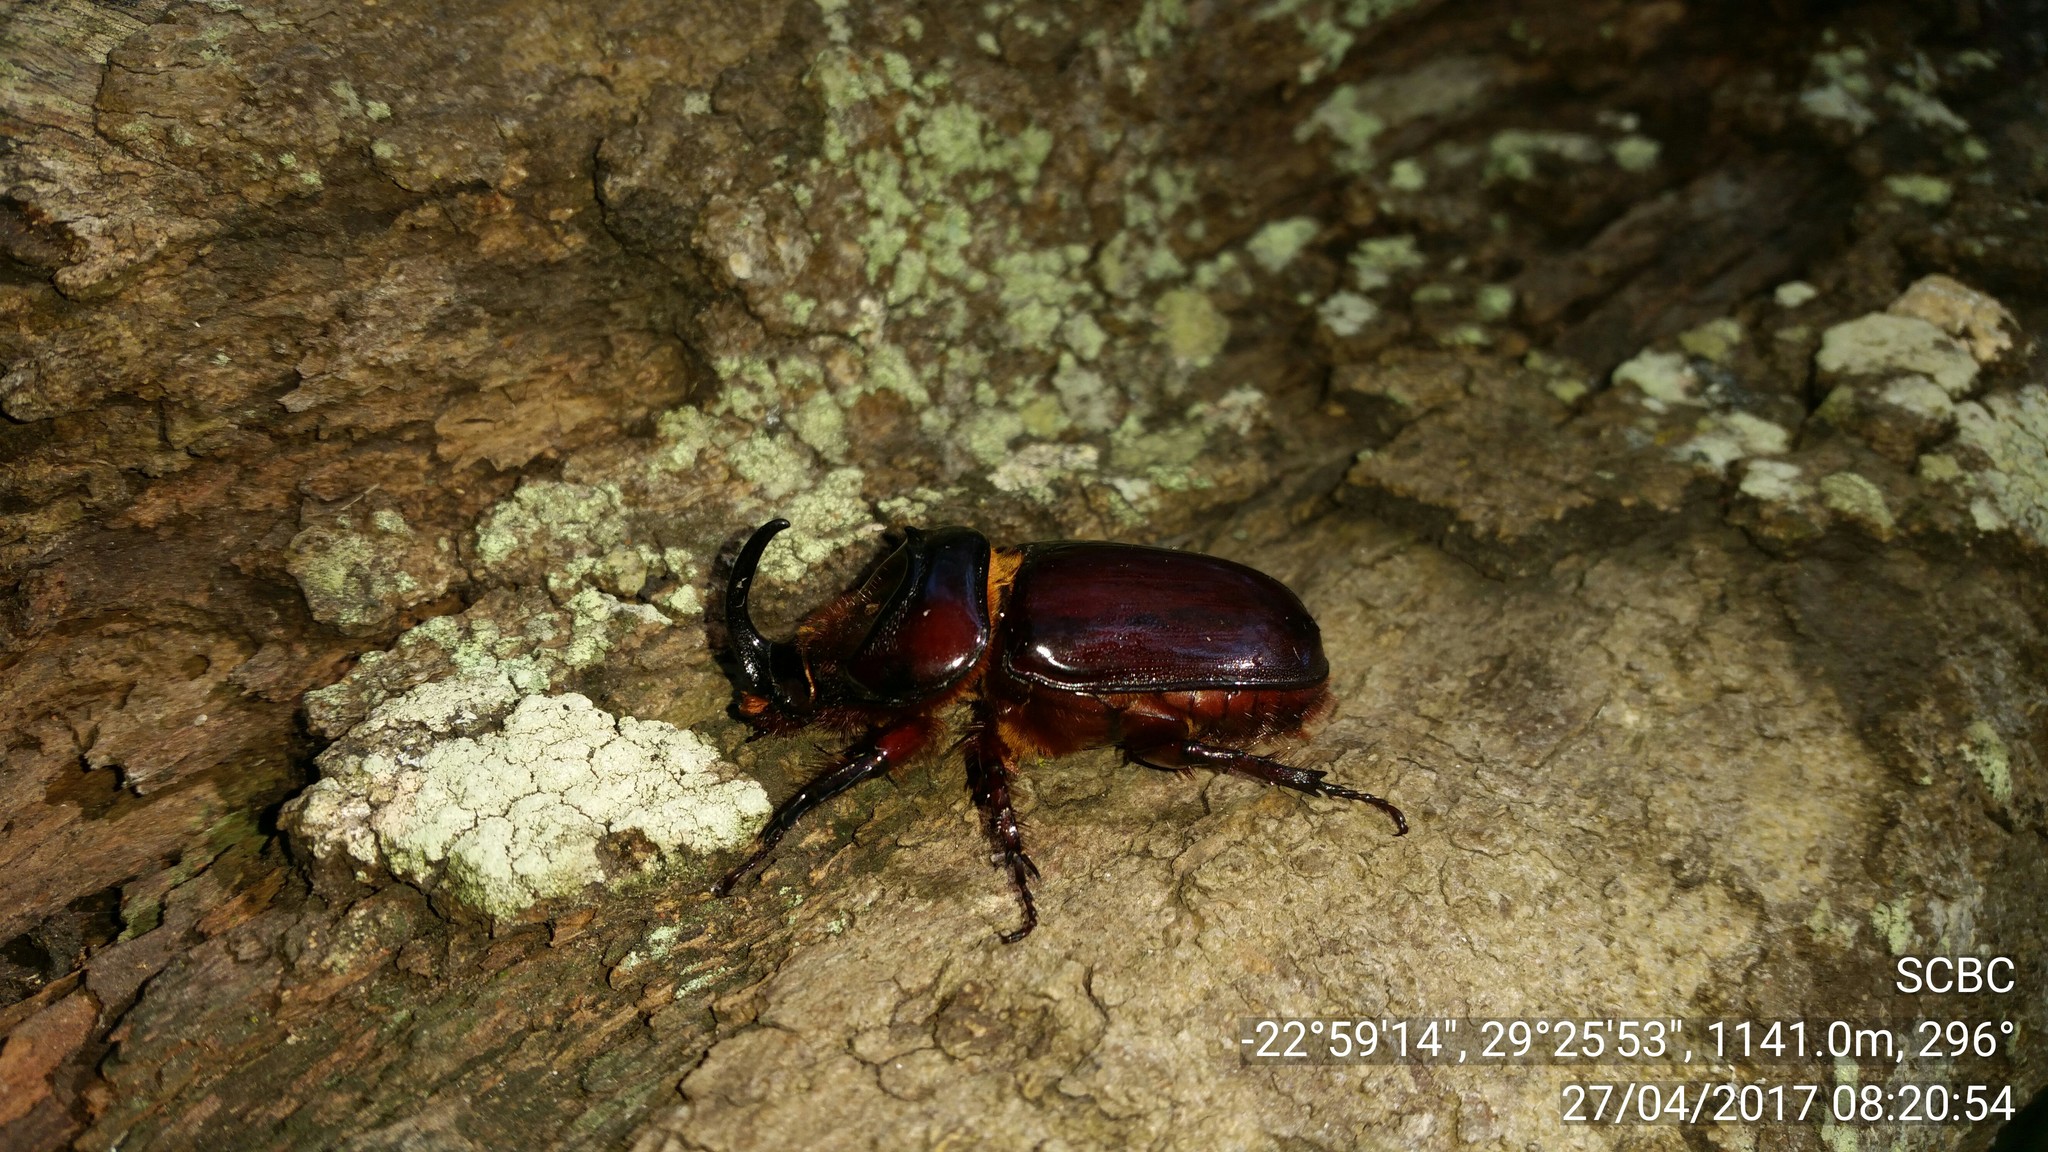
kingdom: Animalia
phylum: Arthropoda
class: Insecta
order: Coleoptera
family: Scarabaeidae
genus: Oryctes
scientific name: Oryctes boas
